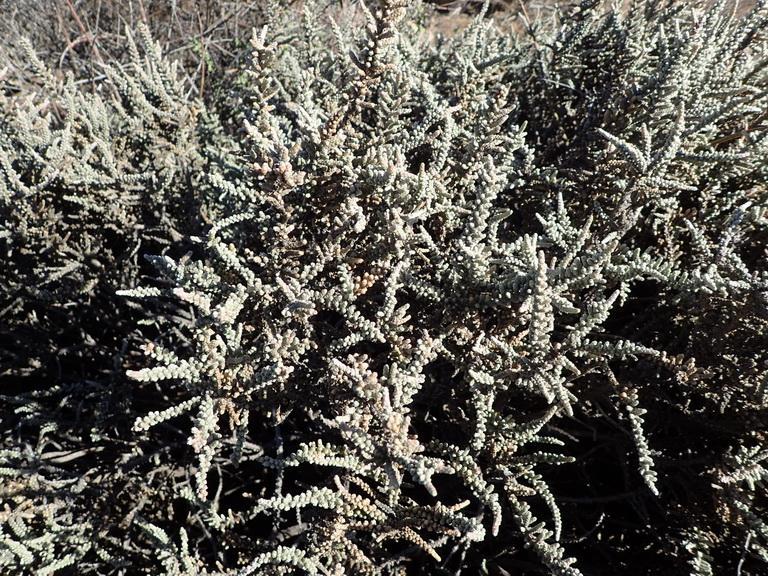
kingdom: Plantae
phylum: Tracheophyta
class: Magnoliopsida
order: Caryophyllales
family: Amaranthaceae
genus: Caroxylon
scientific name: Caroxylon tuberculatum
